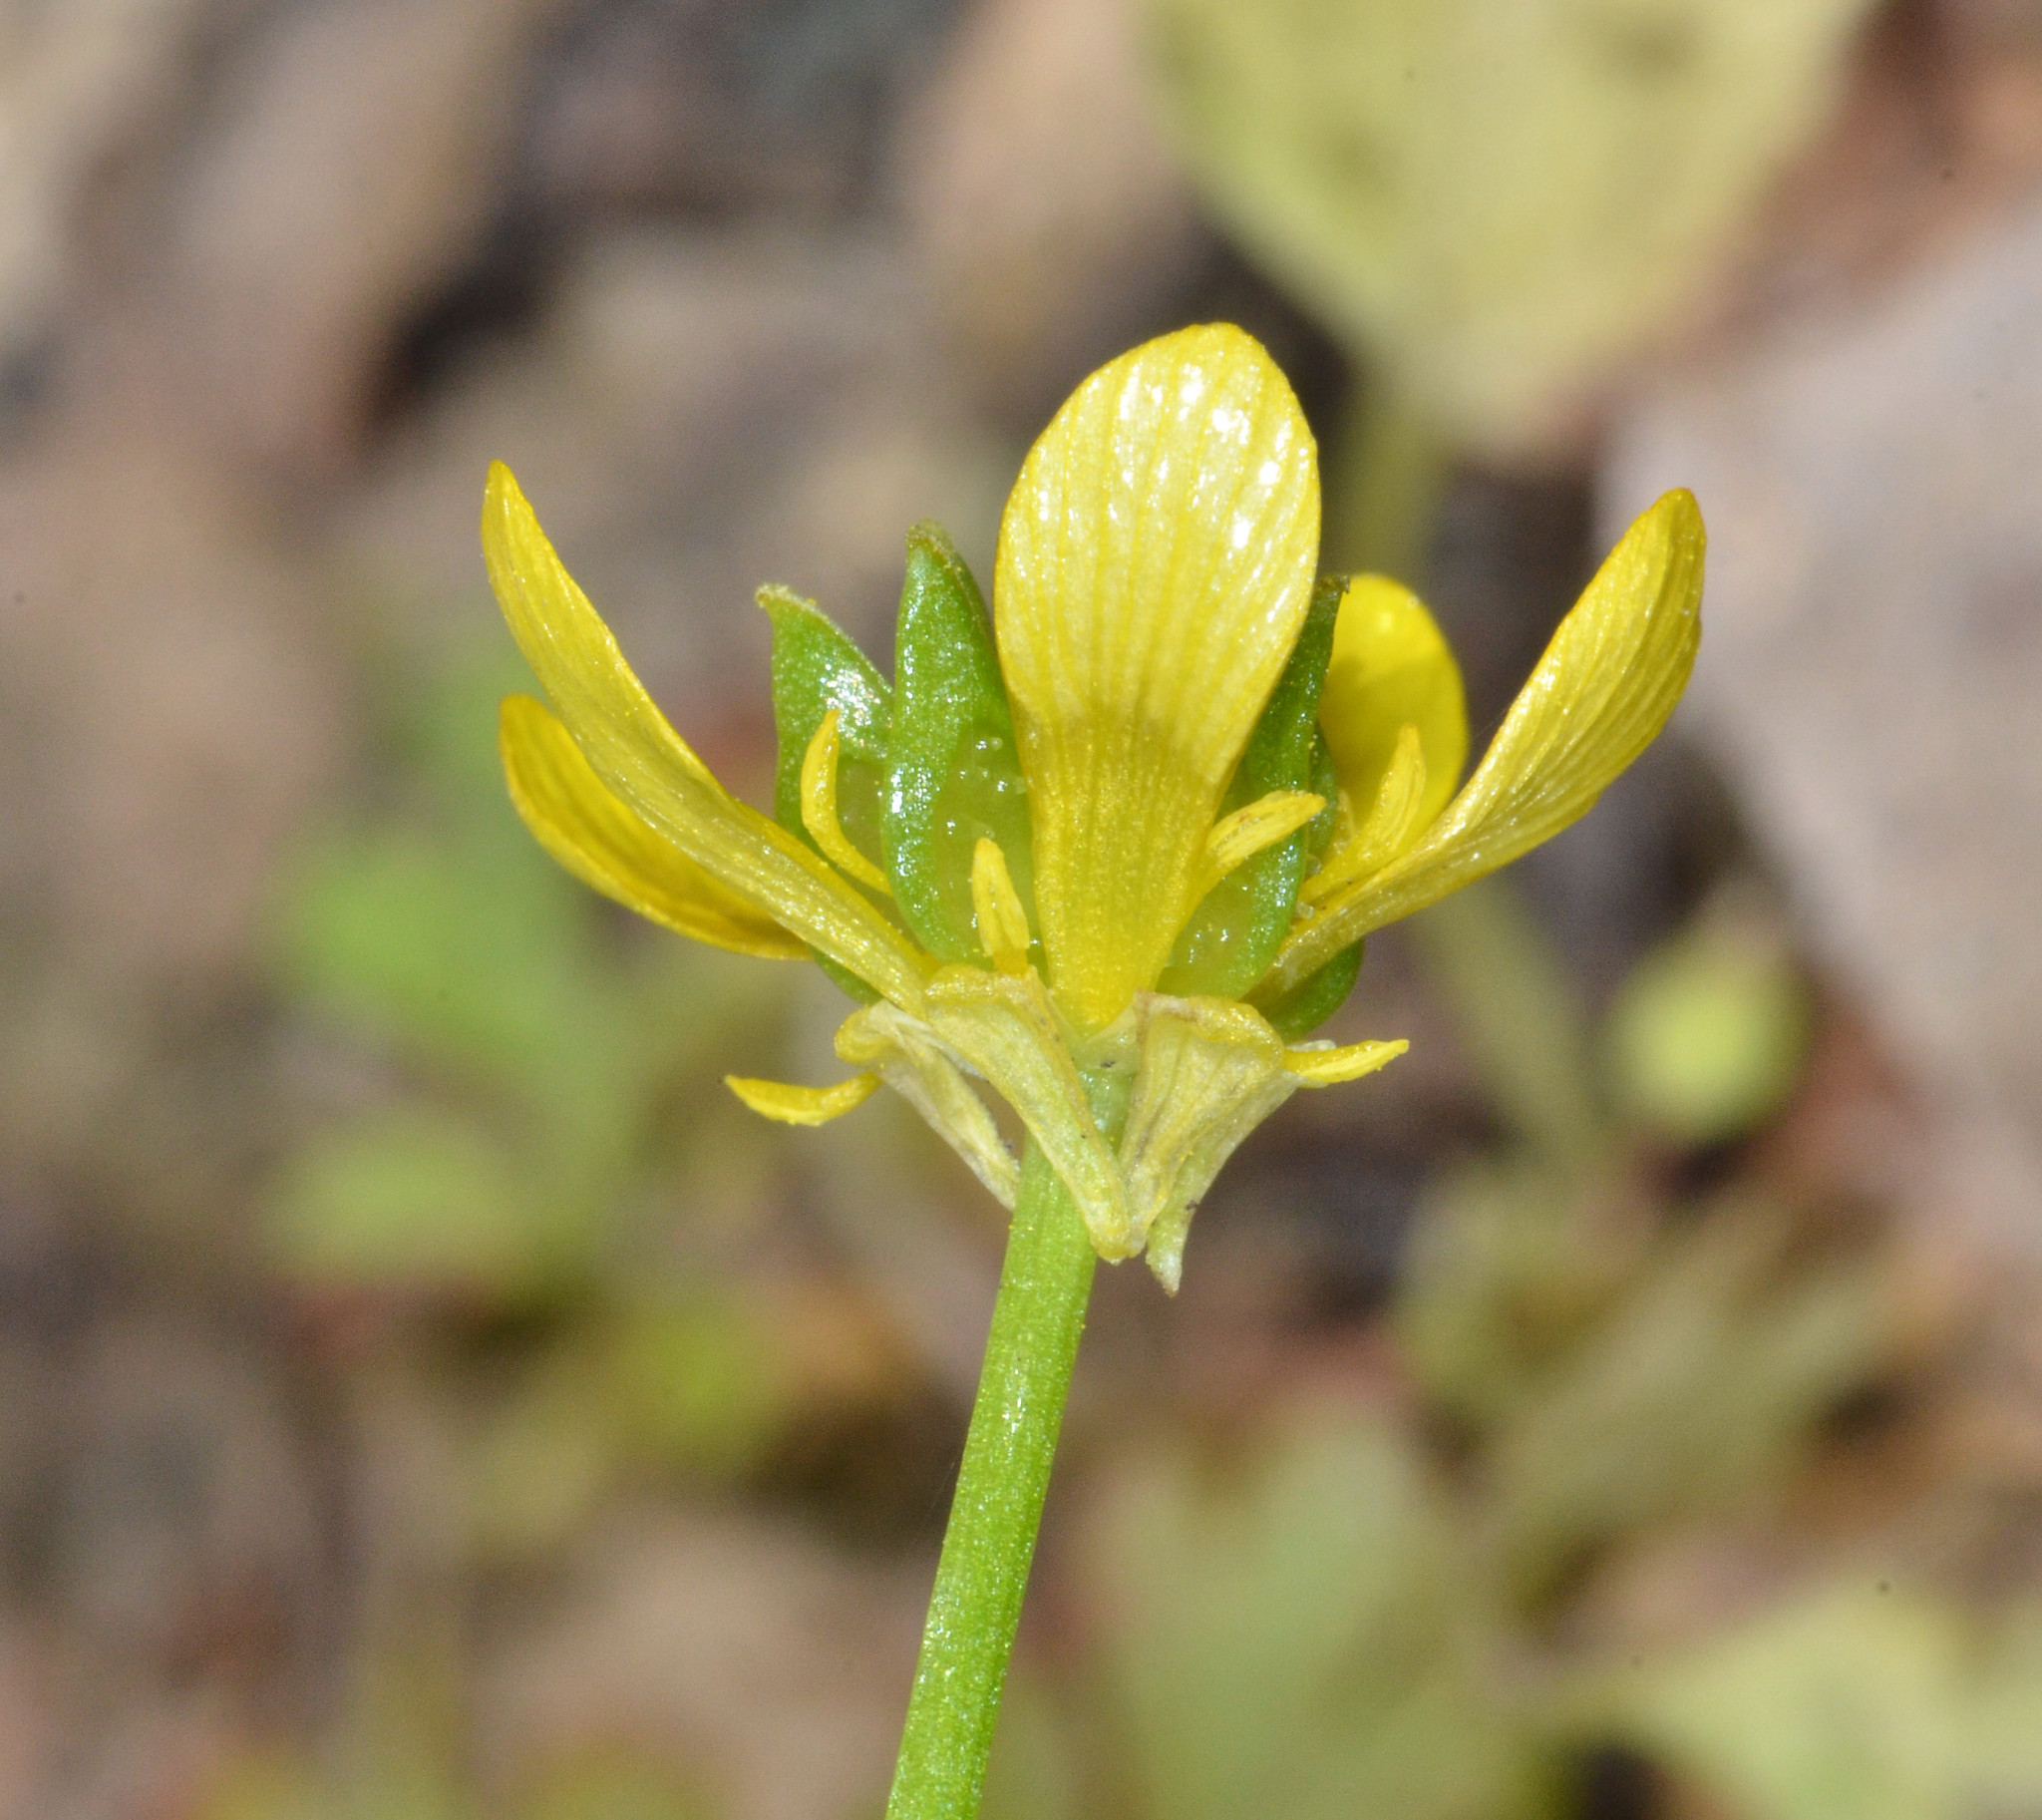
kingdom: Plantae
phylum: Tracheophyta
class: Magnoliopsida
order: Ranunculales
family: Ranunculaceae
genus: Ranunculus
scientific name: Ranunculus muricatus
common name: Rough-fruited buttercup
